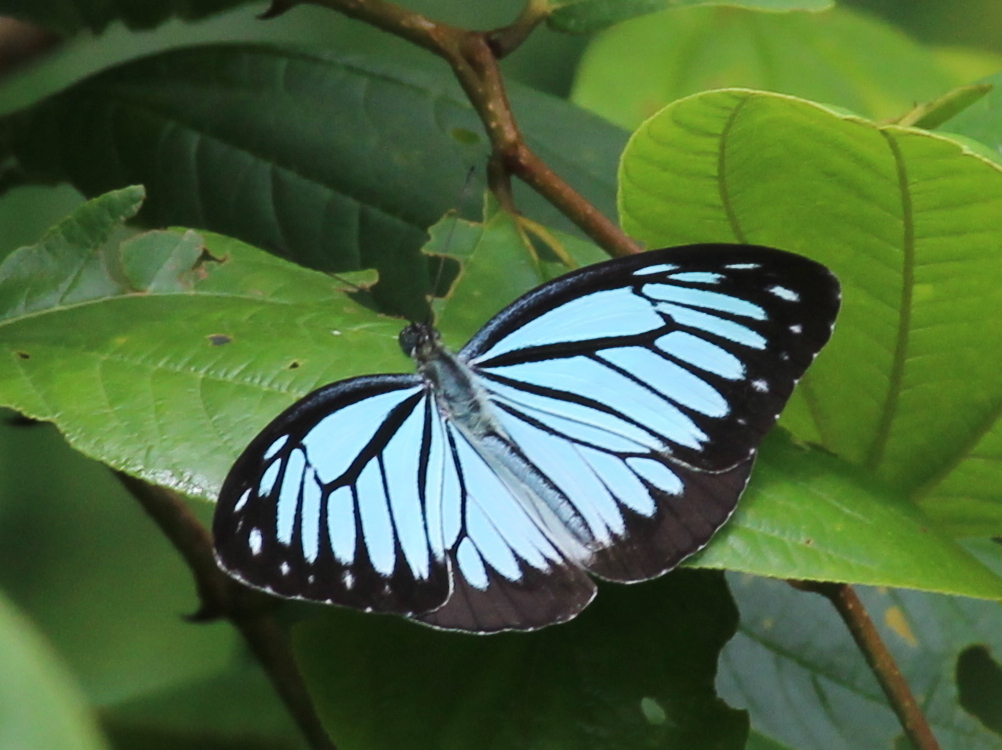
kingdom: Animalia
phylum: Arthropoda
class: Insecta
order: Lepidoptera
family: Pieridae
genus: Pareronia
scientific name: Pareronia hippia
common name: Indian wanderer
